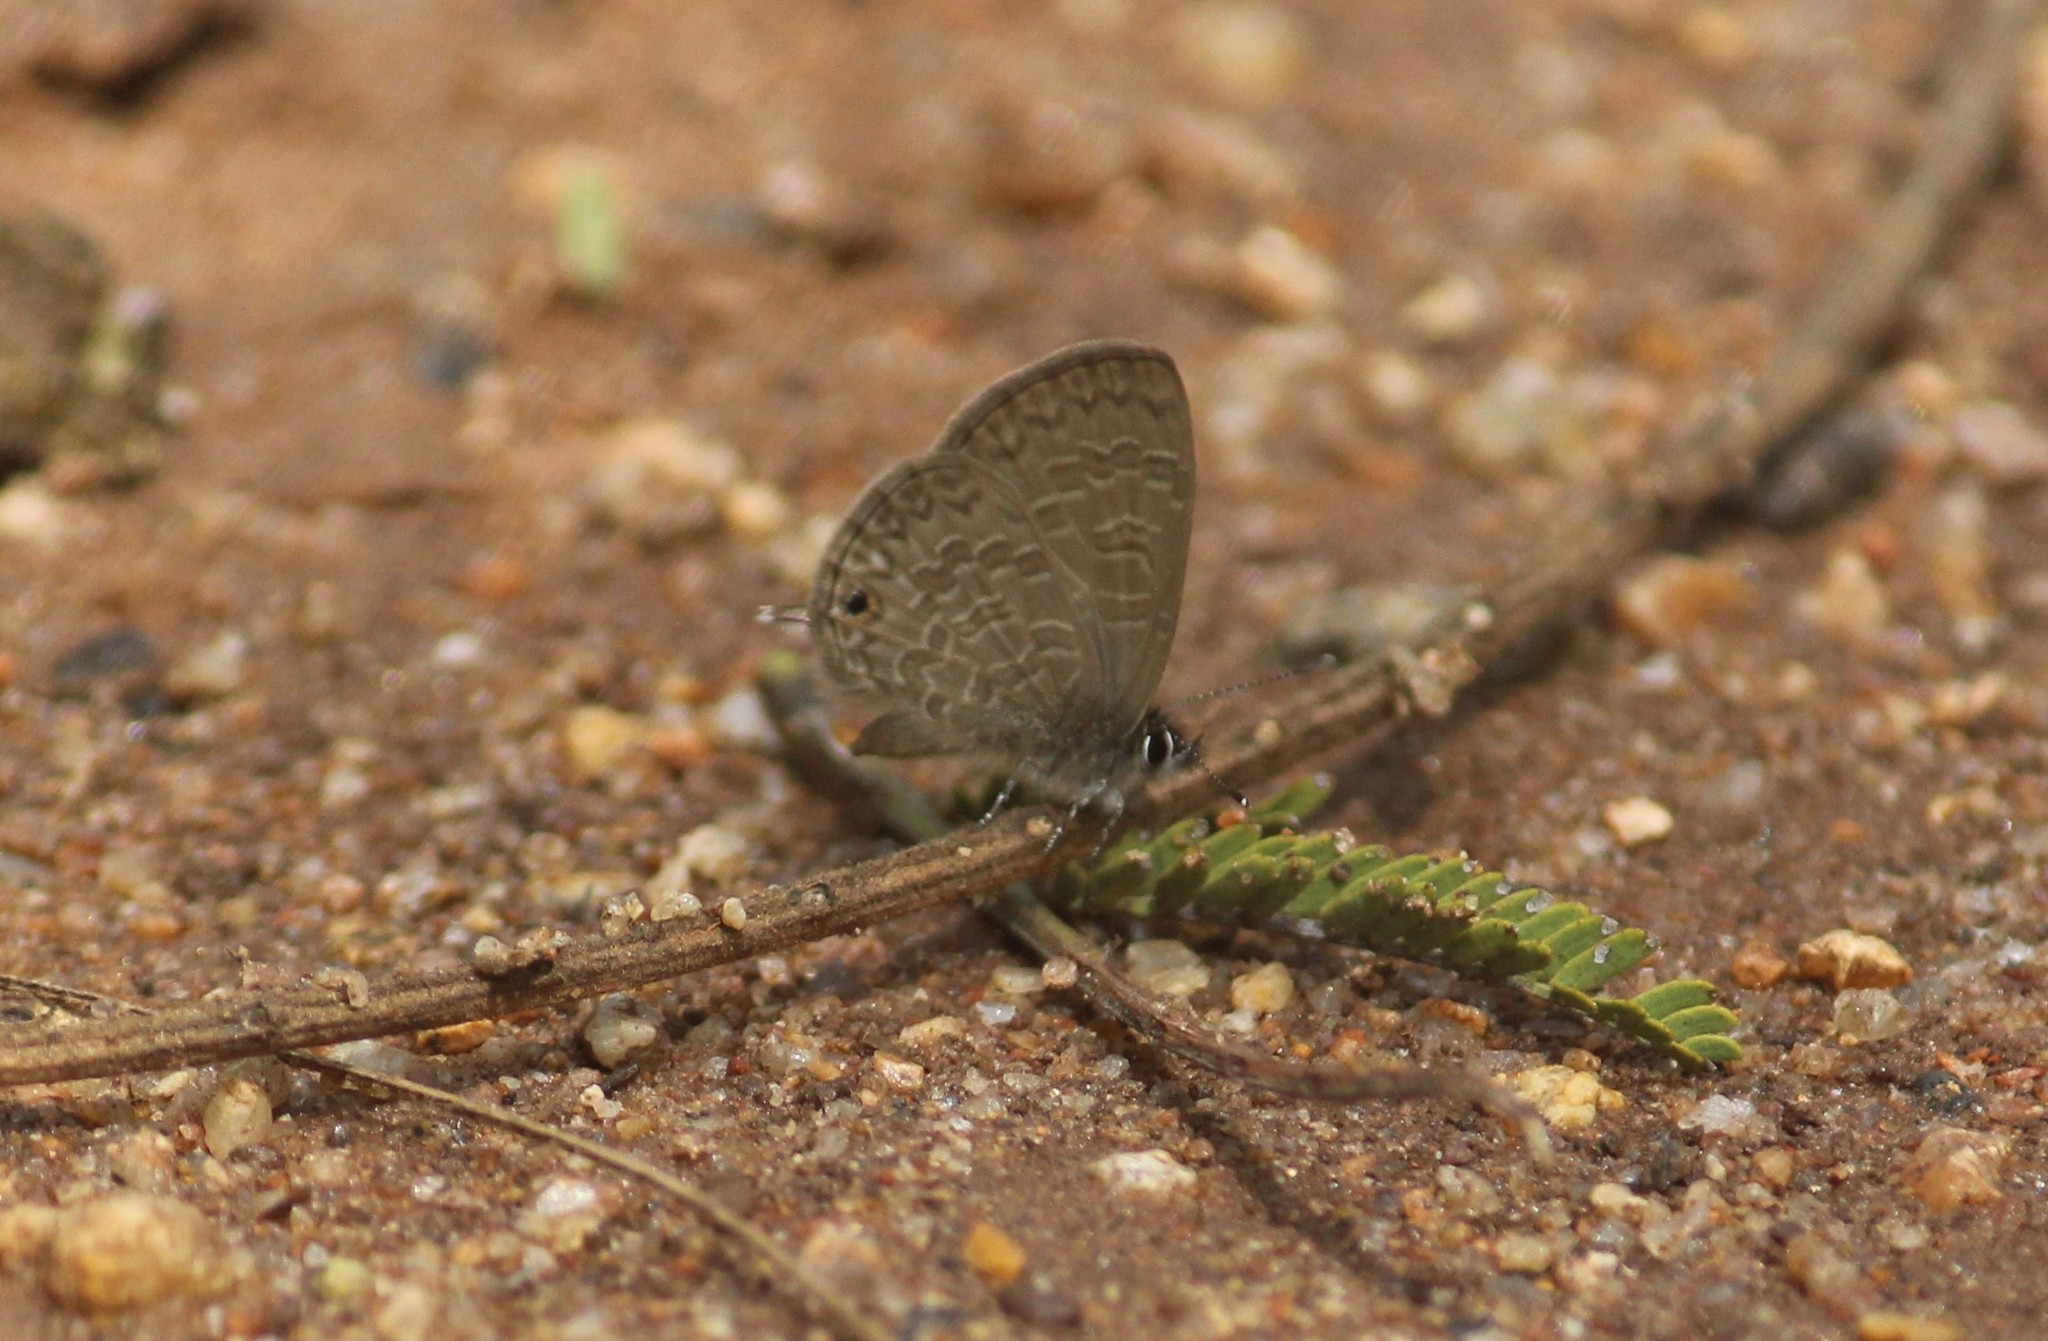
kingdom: Animalia
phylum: Arthropoda
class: Insecta
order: Lepidoptera
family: Lycaenidae
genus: Prosotas
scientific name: Prosotas nora
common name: Common line blue
